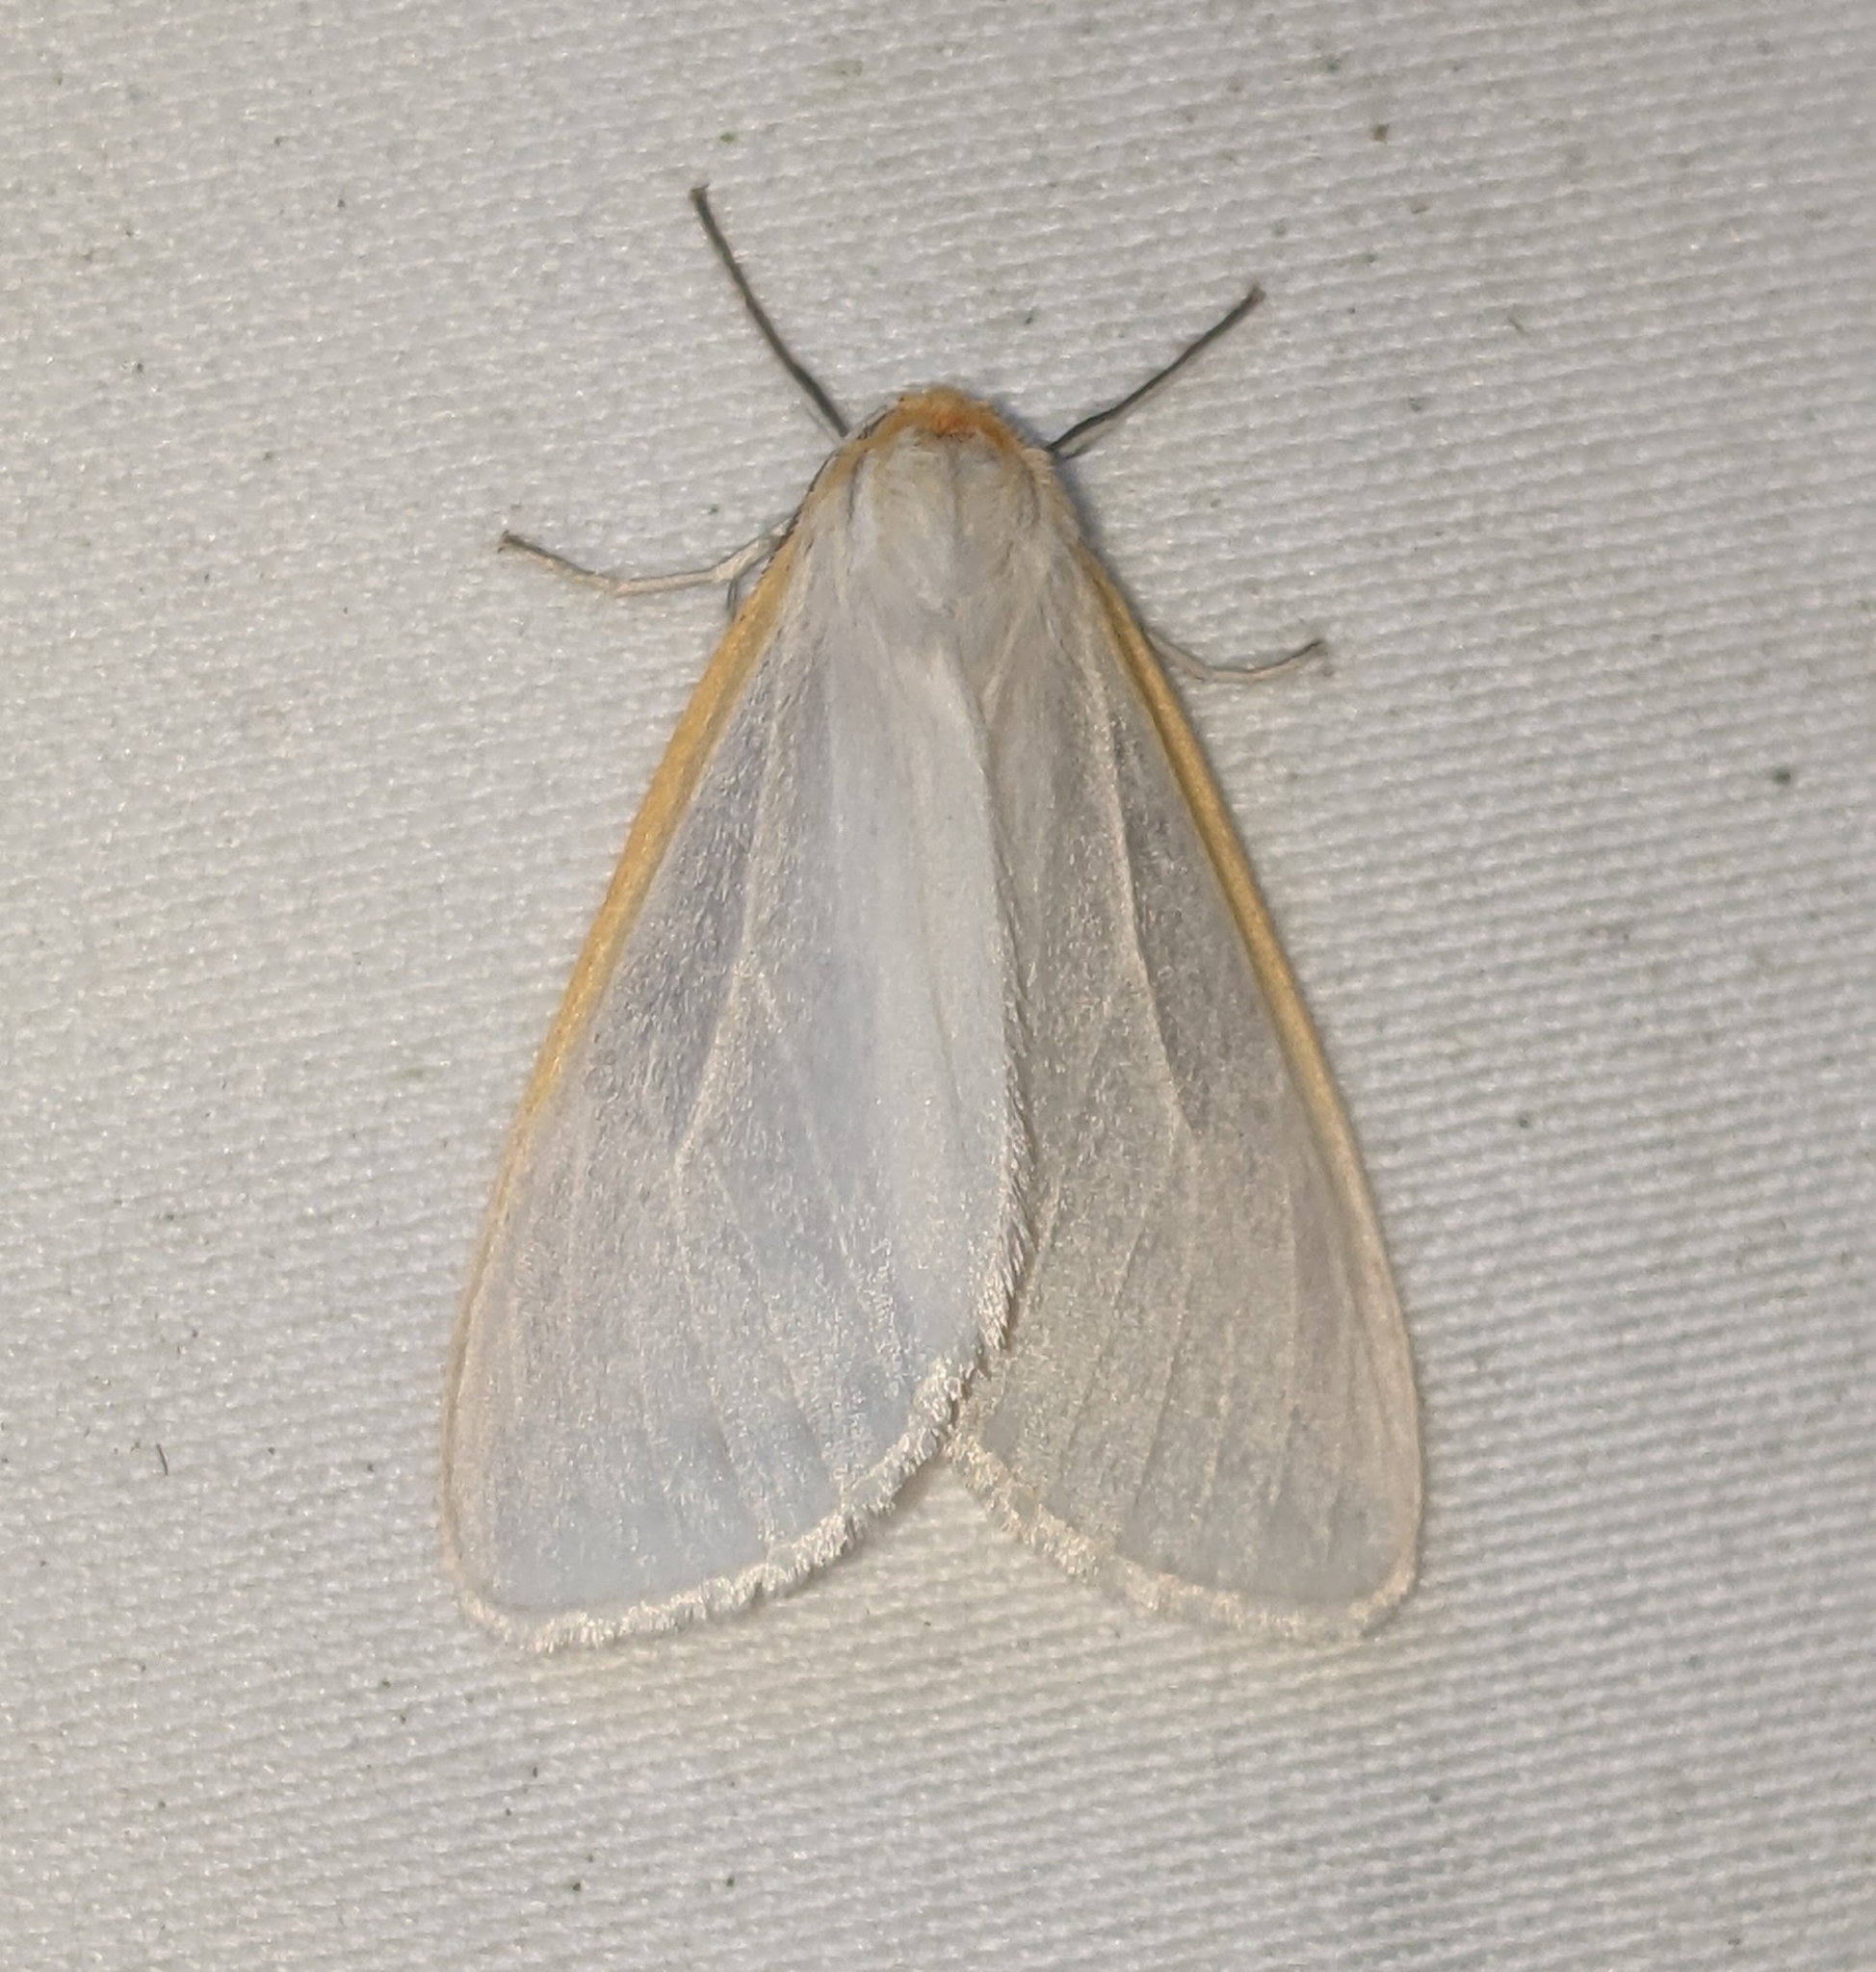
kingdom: Animalia
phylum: Arthropoda
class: Insecta
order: Lepidoptera
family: Erebidae
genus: Cycnia
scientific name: Cycnia tenera
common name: Delicate cycnia moth
